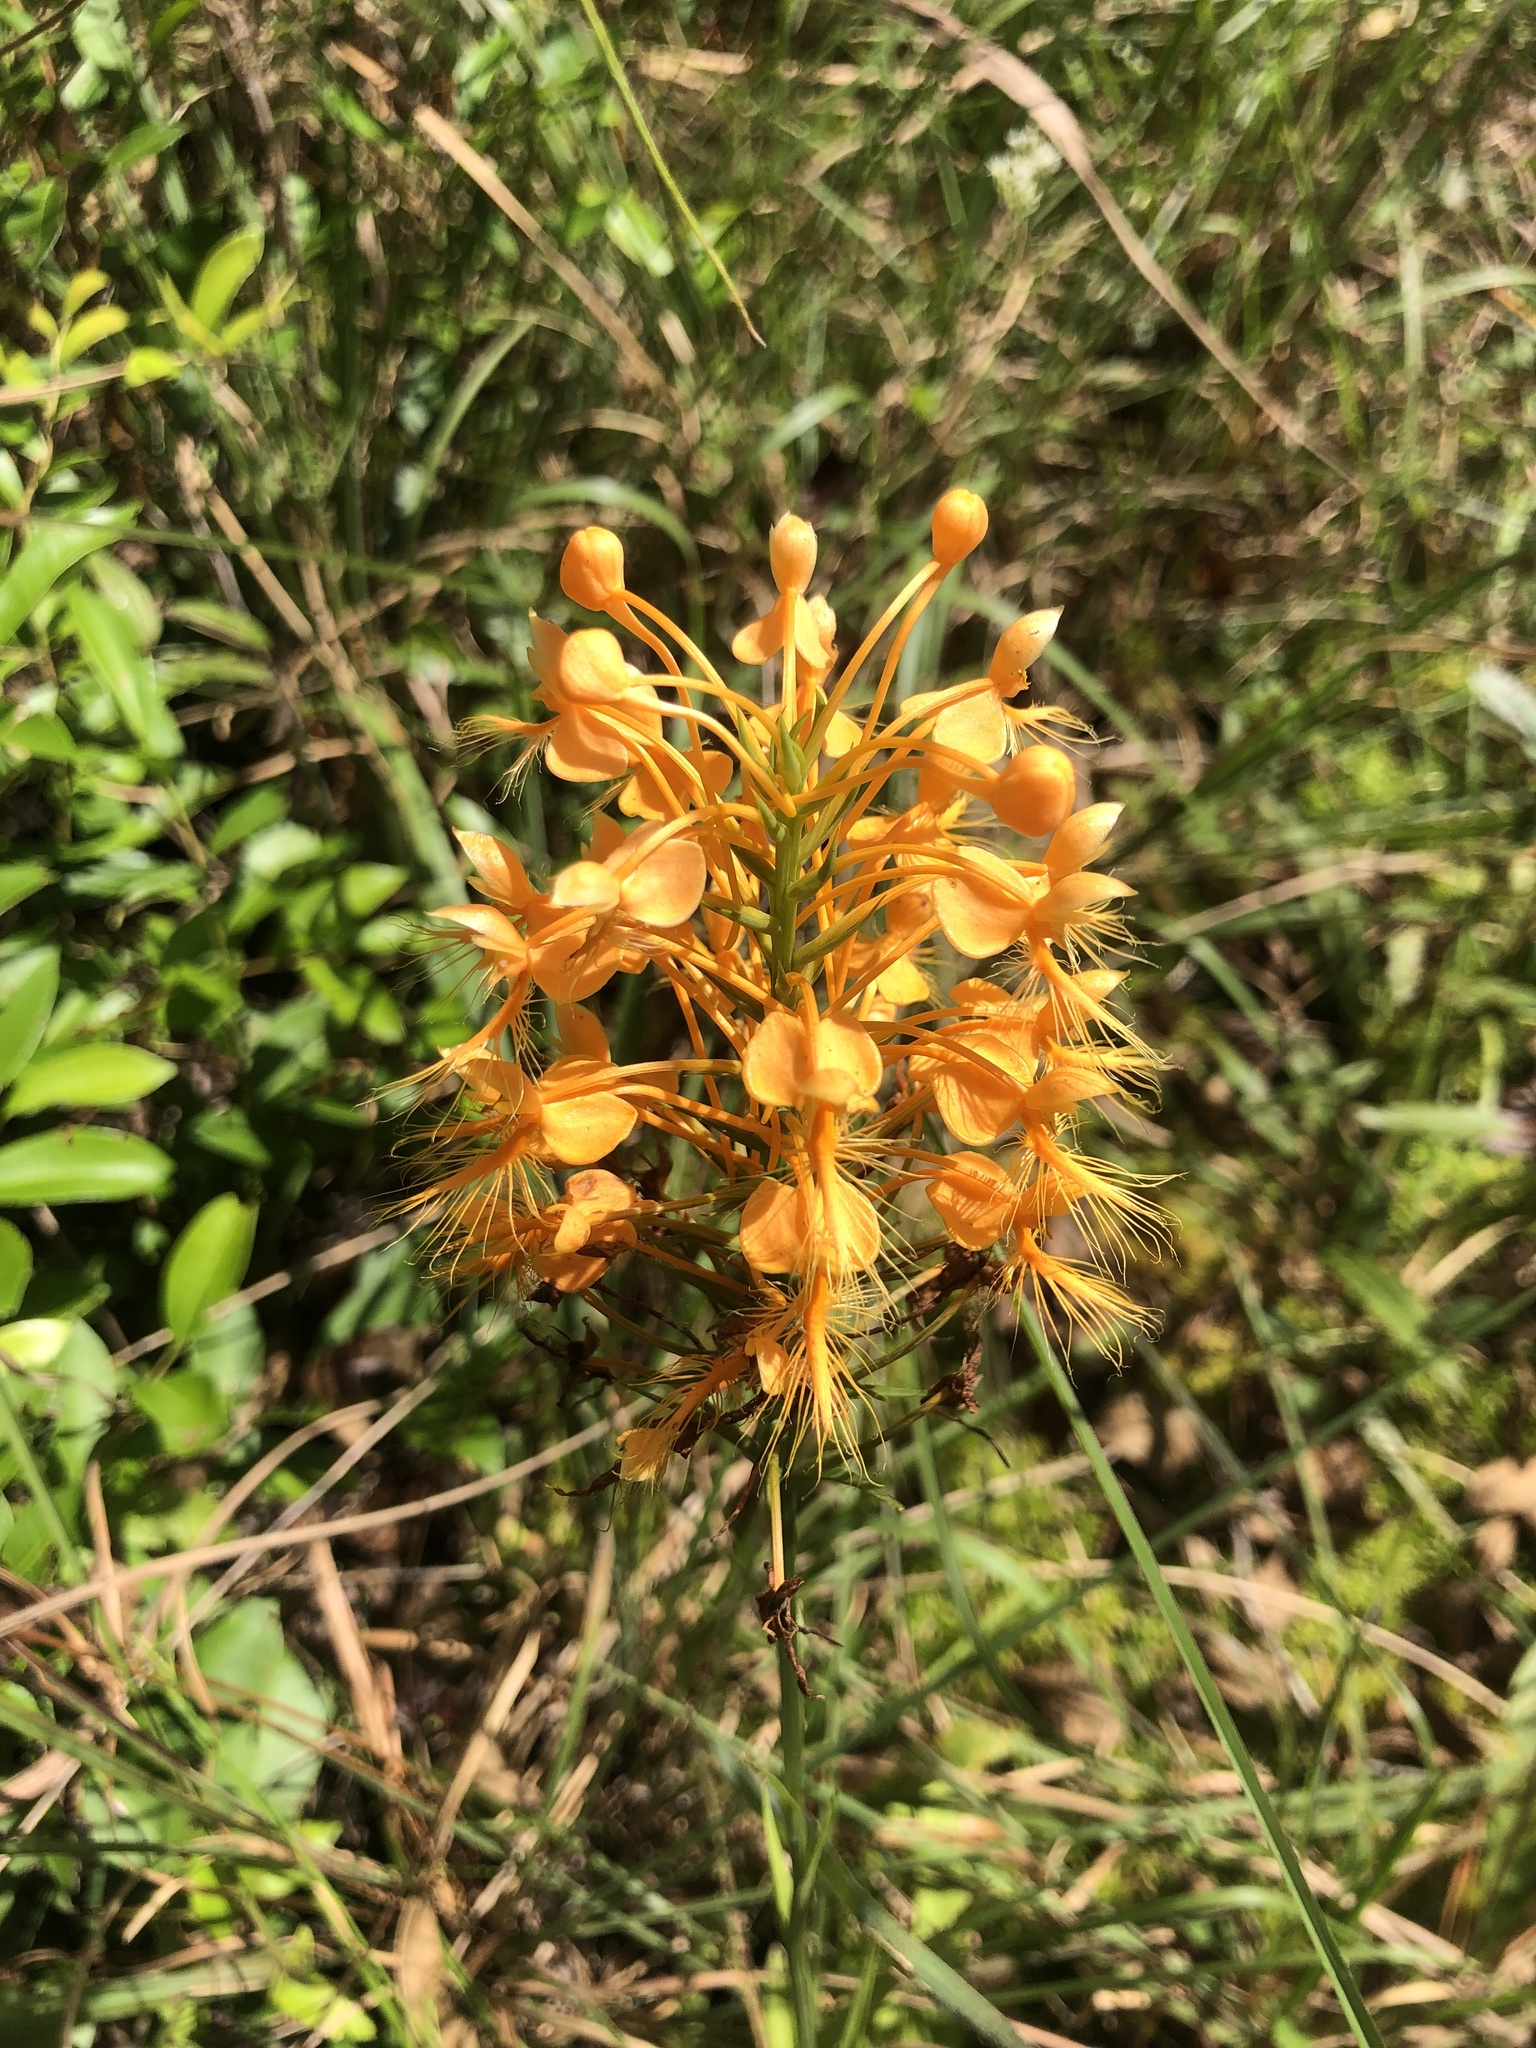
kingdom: Plantae
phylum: Tracheophyta
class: Liliopsida
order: Asparagales
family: Orchidaceae
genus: Platanthera
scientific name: Platanthera ciliaris
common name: Yellow fringed orchid
